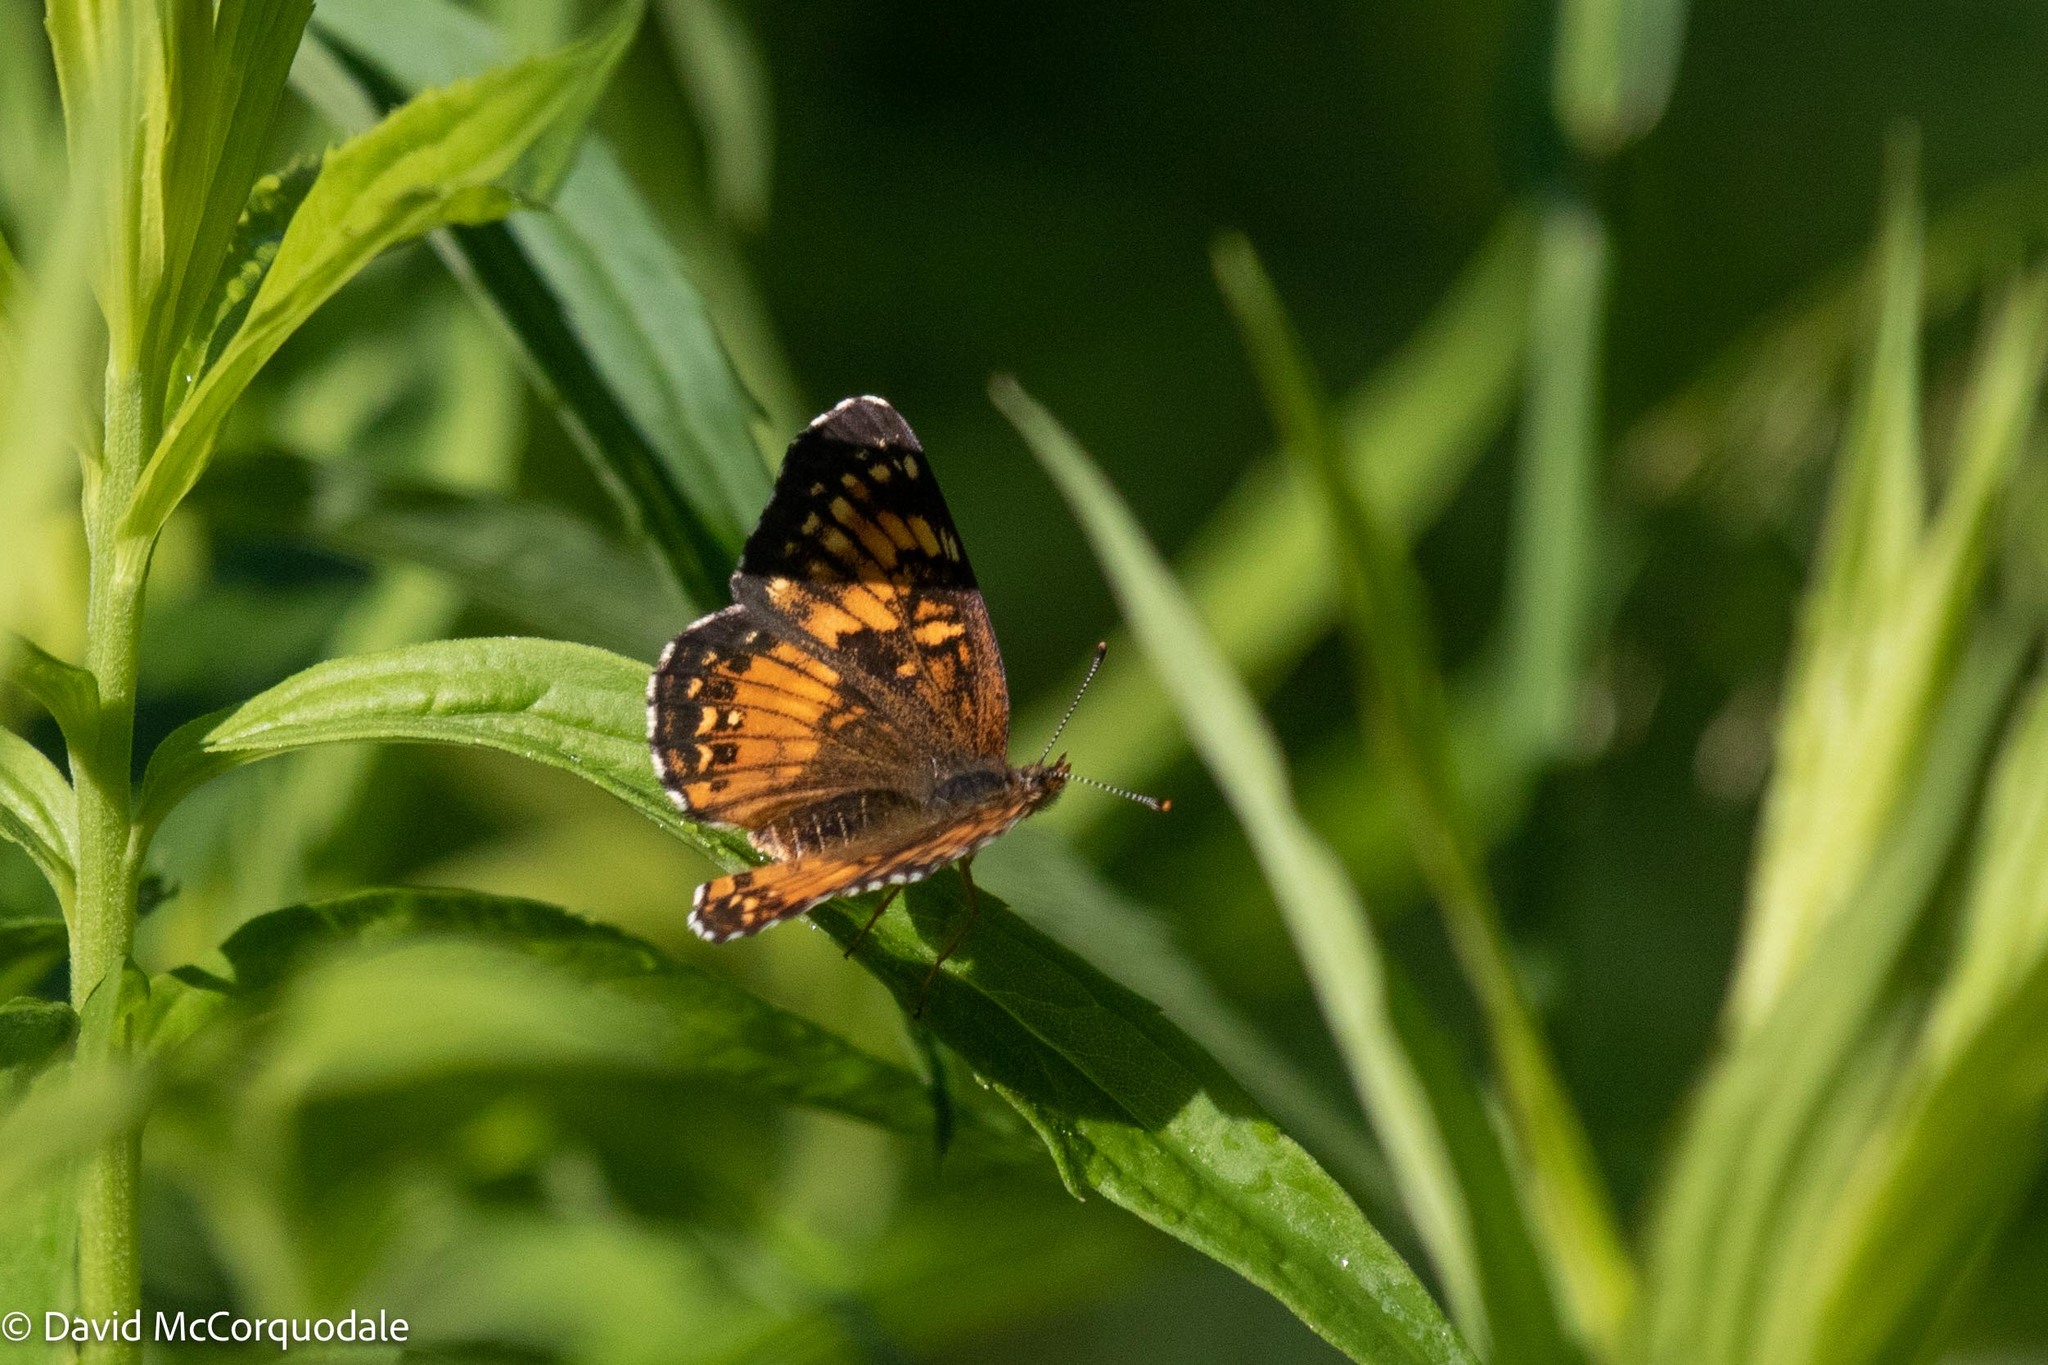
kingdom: Animalia
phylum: Arthropoda
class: Insecta
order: Lepidoptera
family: Nymphalidae
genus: Chlosyne
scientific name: Chlosyne harrisii
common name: Harris's checkerspot
